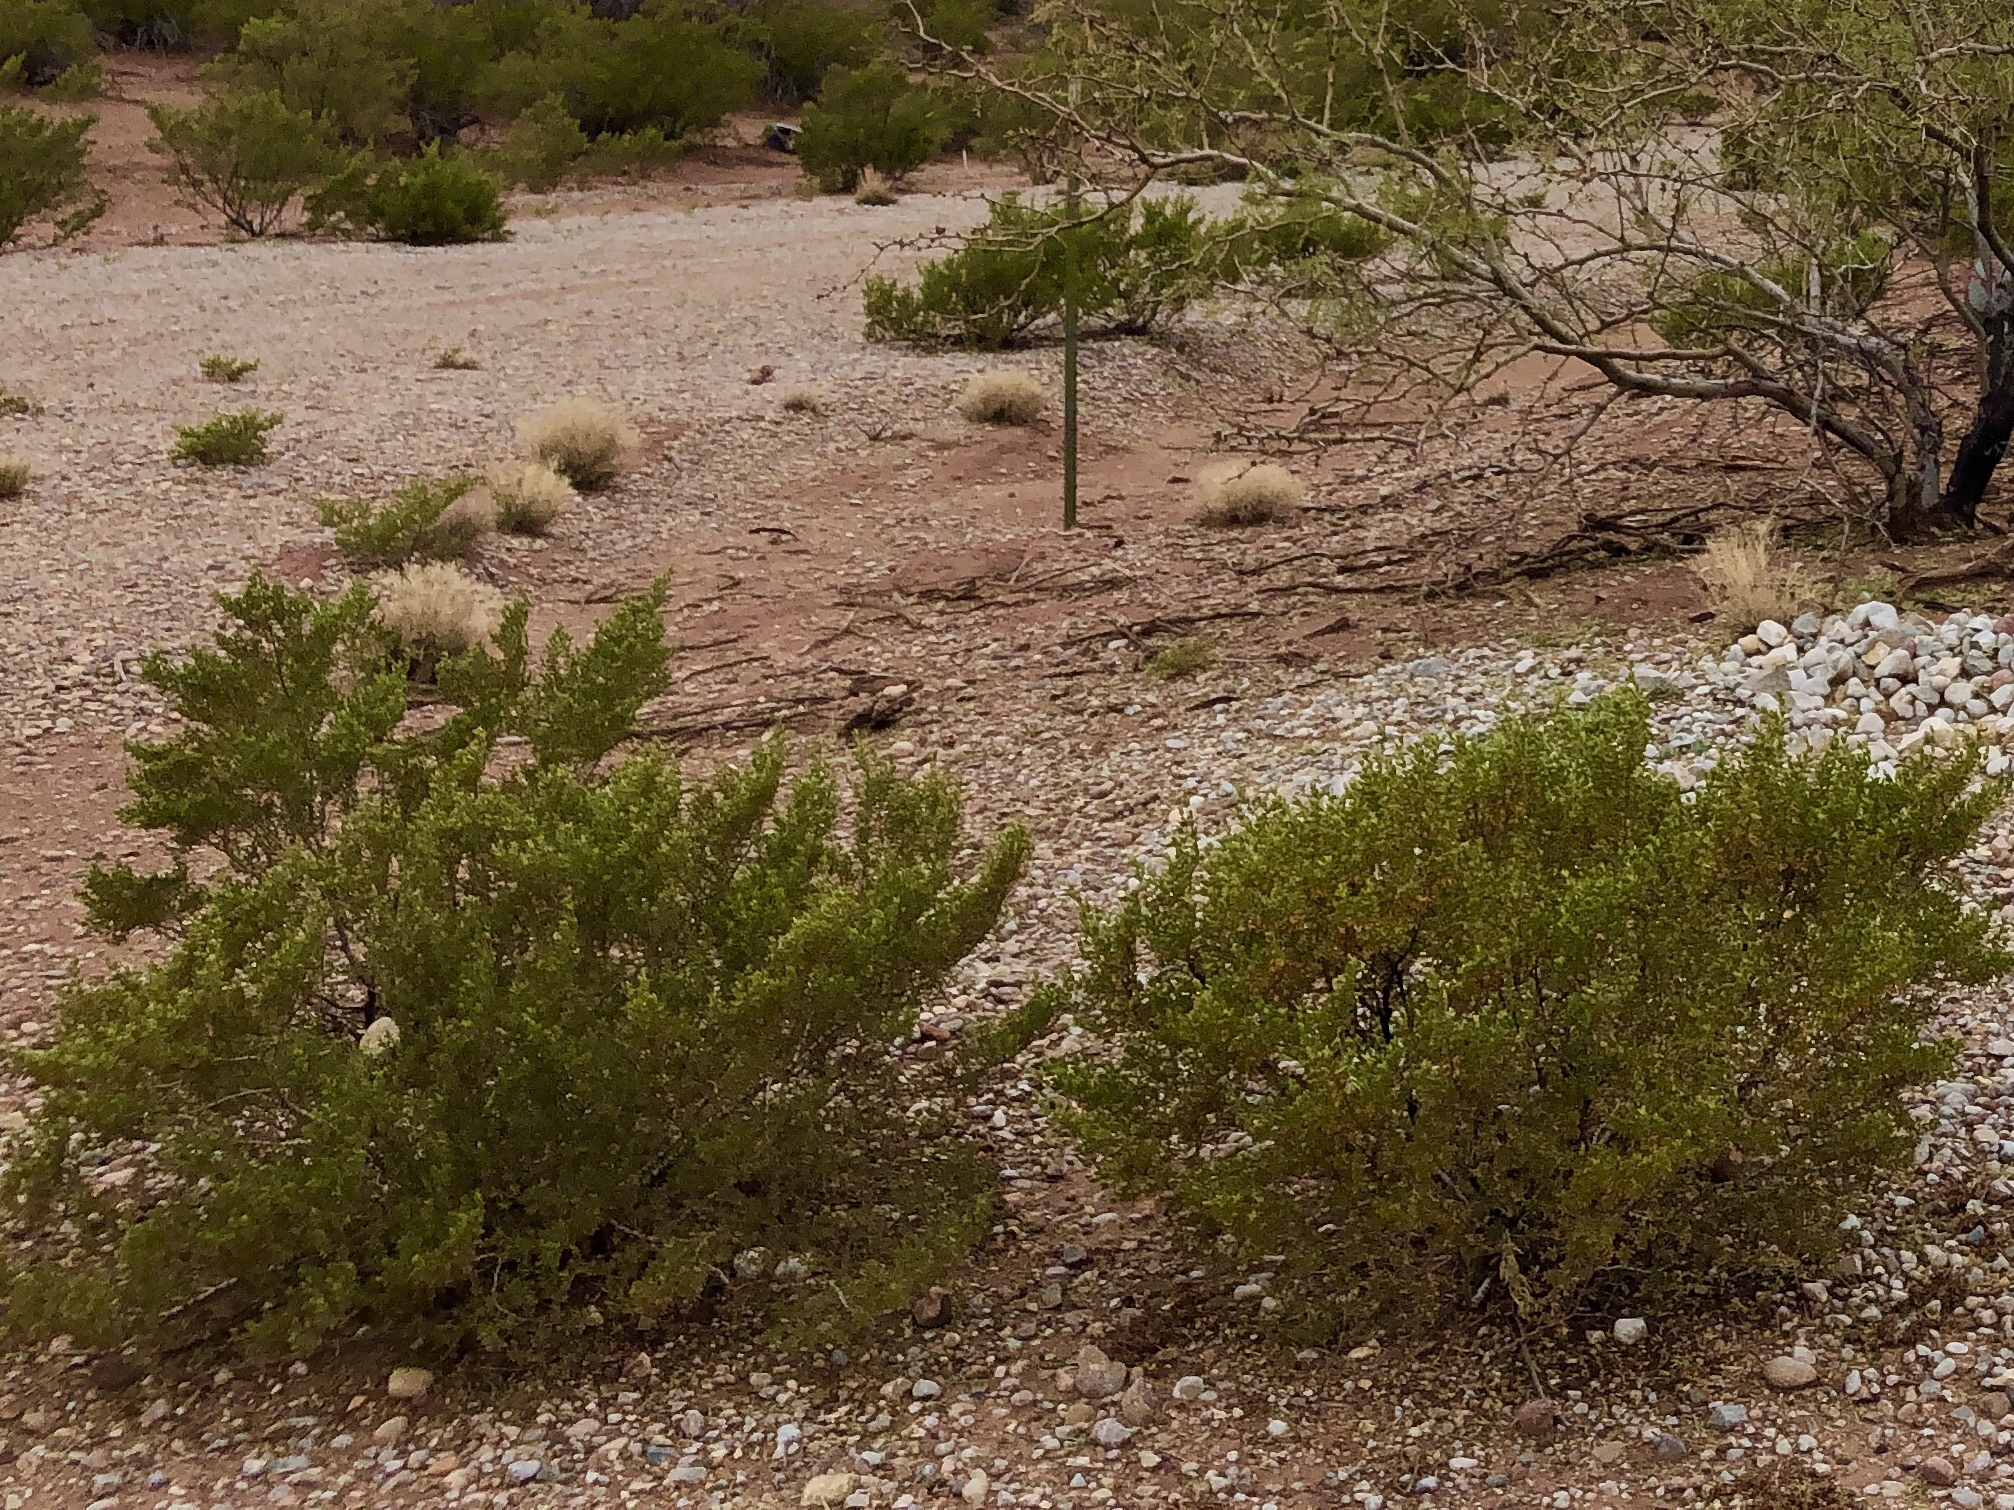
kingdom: Plantae
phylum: Tracheophyta
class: Magnoliopsida
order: Zygophyllales
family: Zygophyllaceae
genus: Larrea
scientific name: Larrea tridentata
